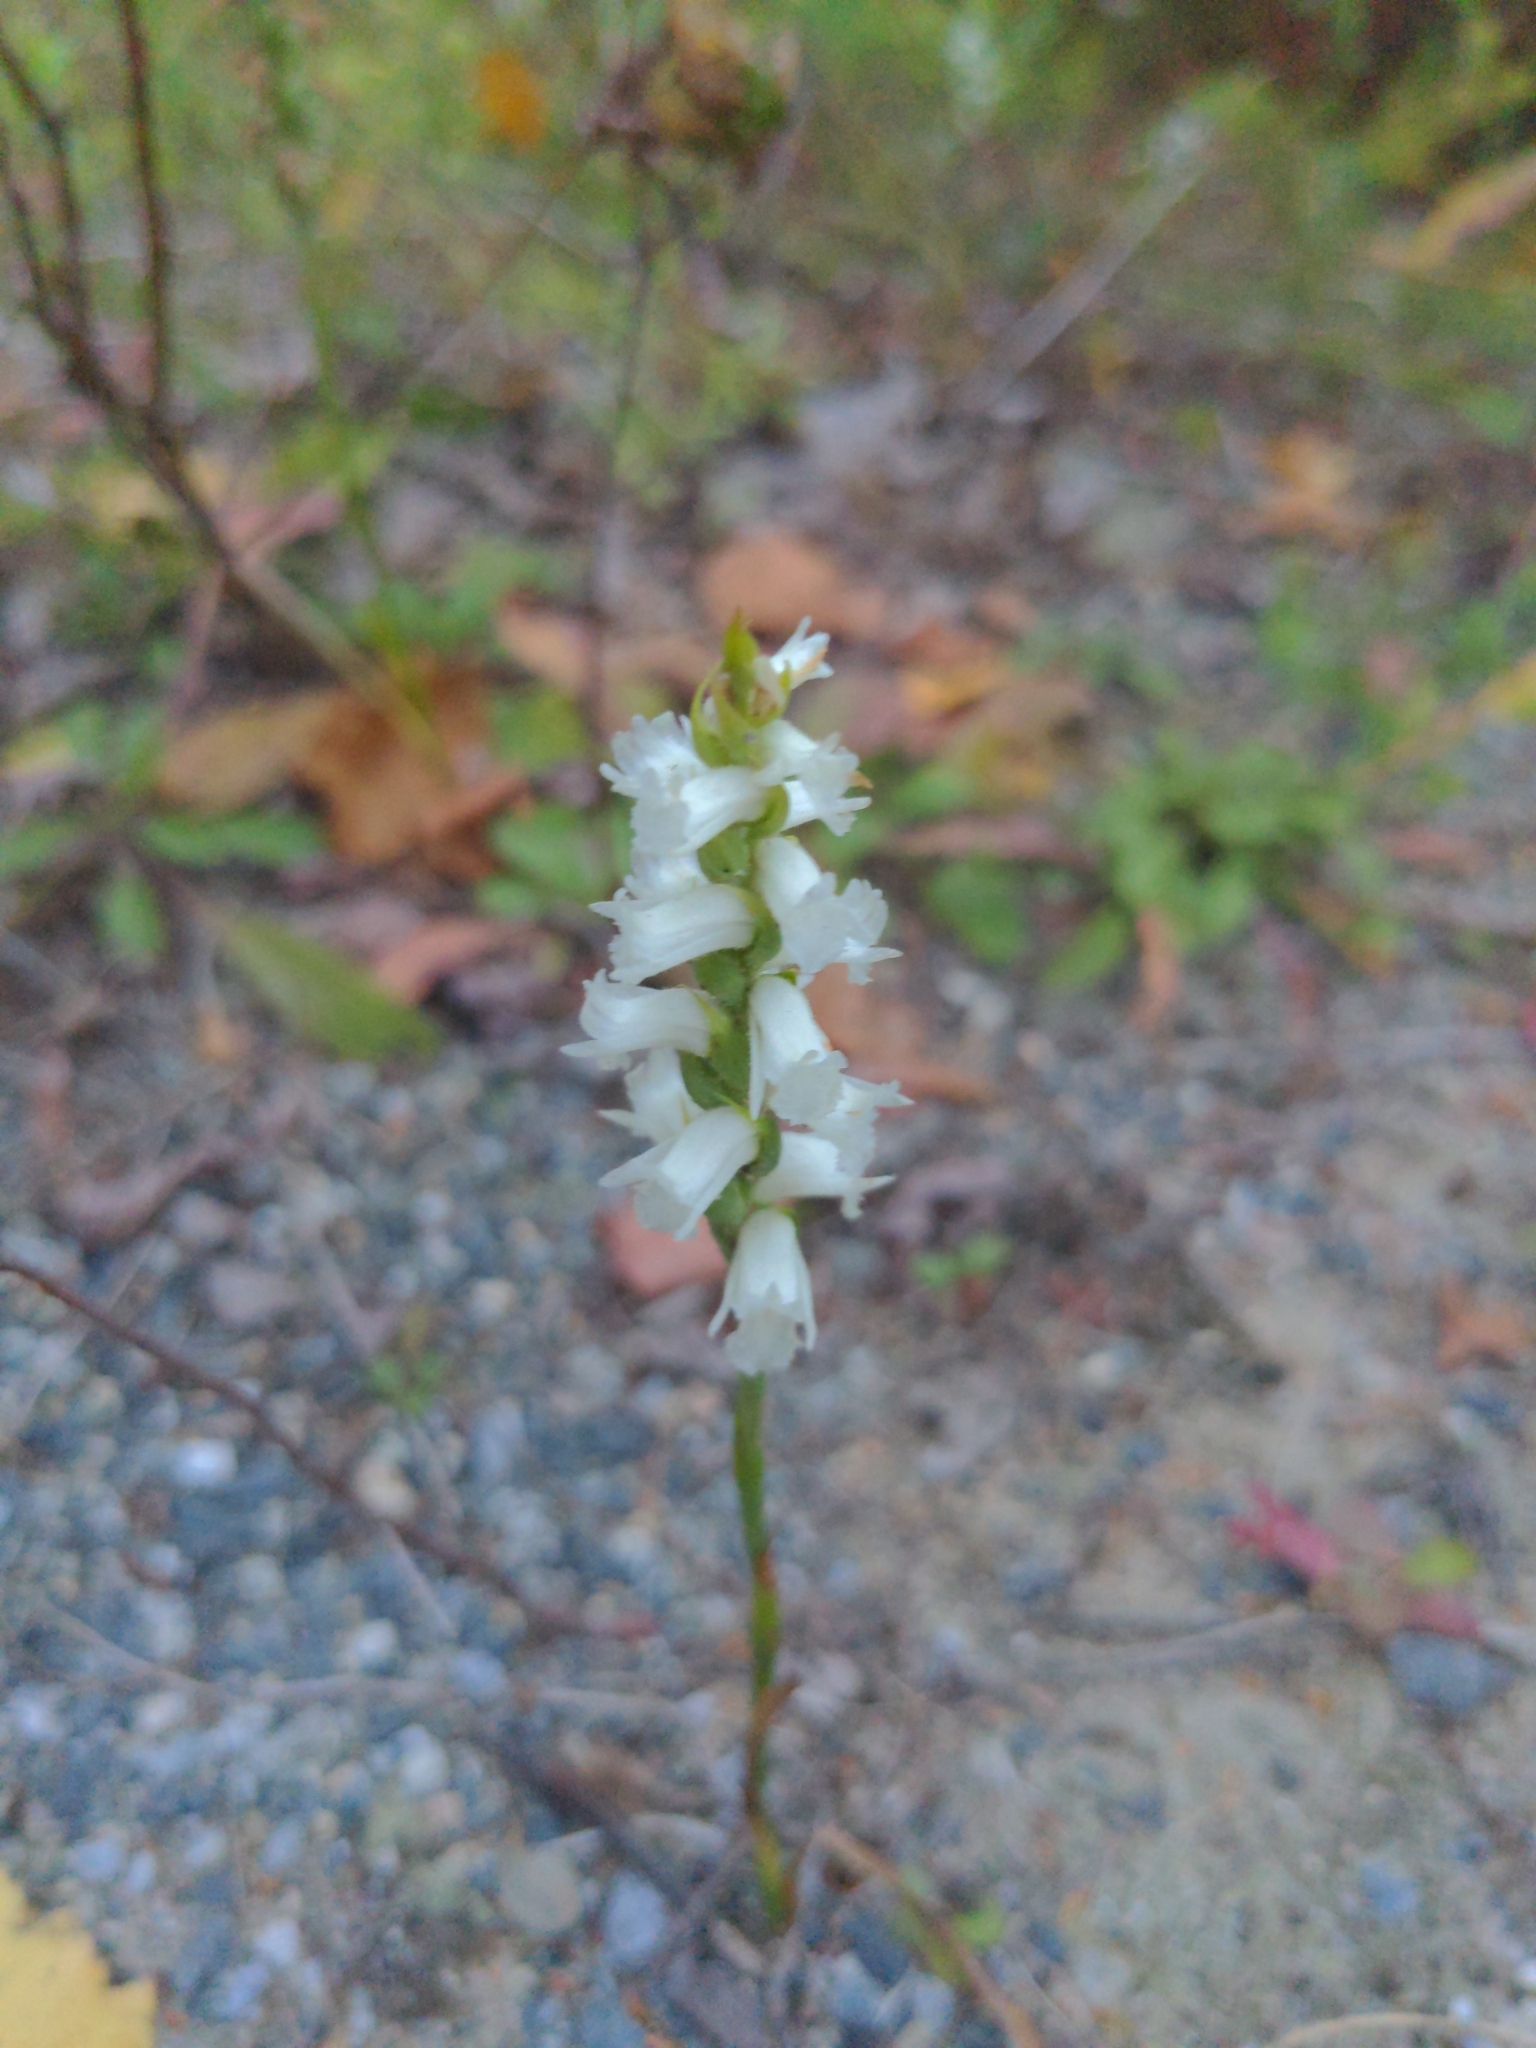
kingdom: Plantae
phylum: Tracheophyta
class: Liliopsida
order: Asparagales
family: Orchidaceae
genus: Spiranthes
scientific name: Spiranthes arcisepala
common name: Appalachian ladies'-tresses
